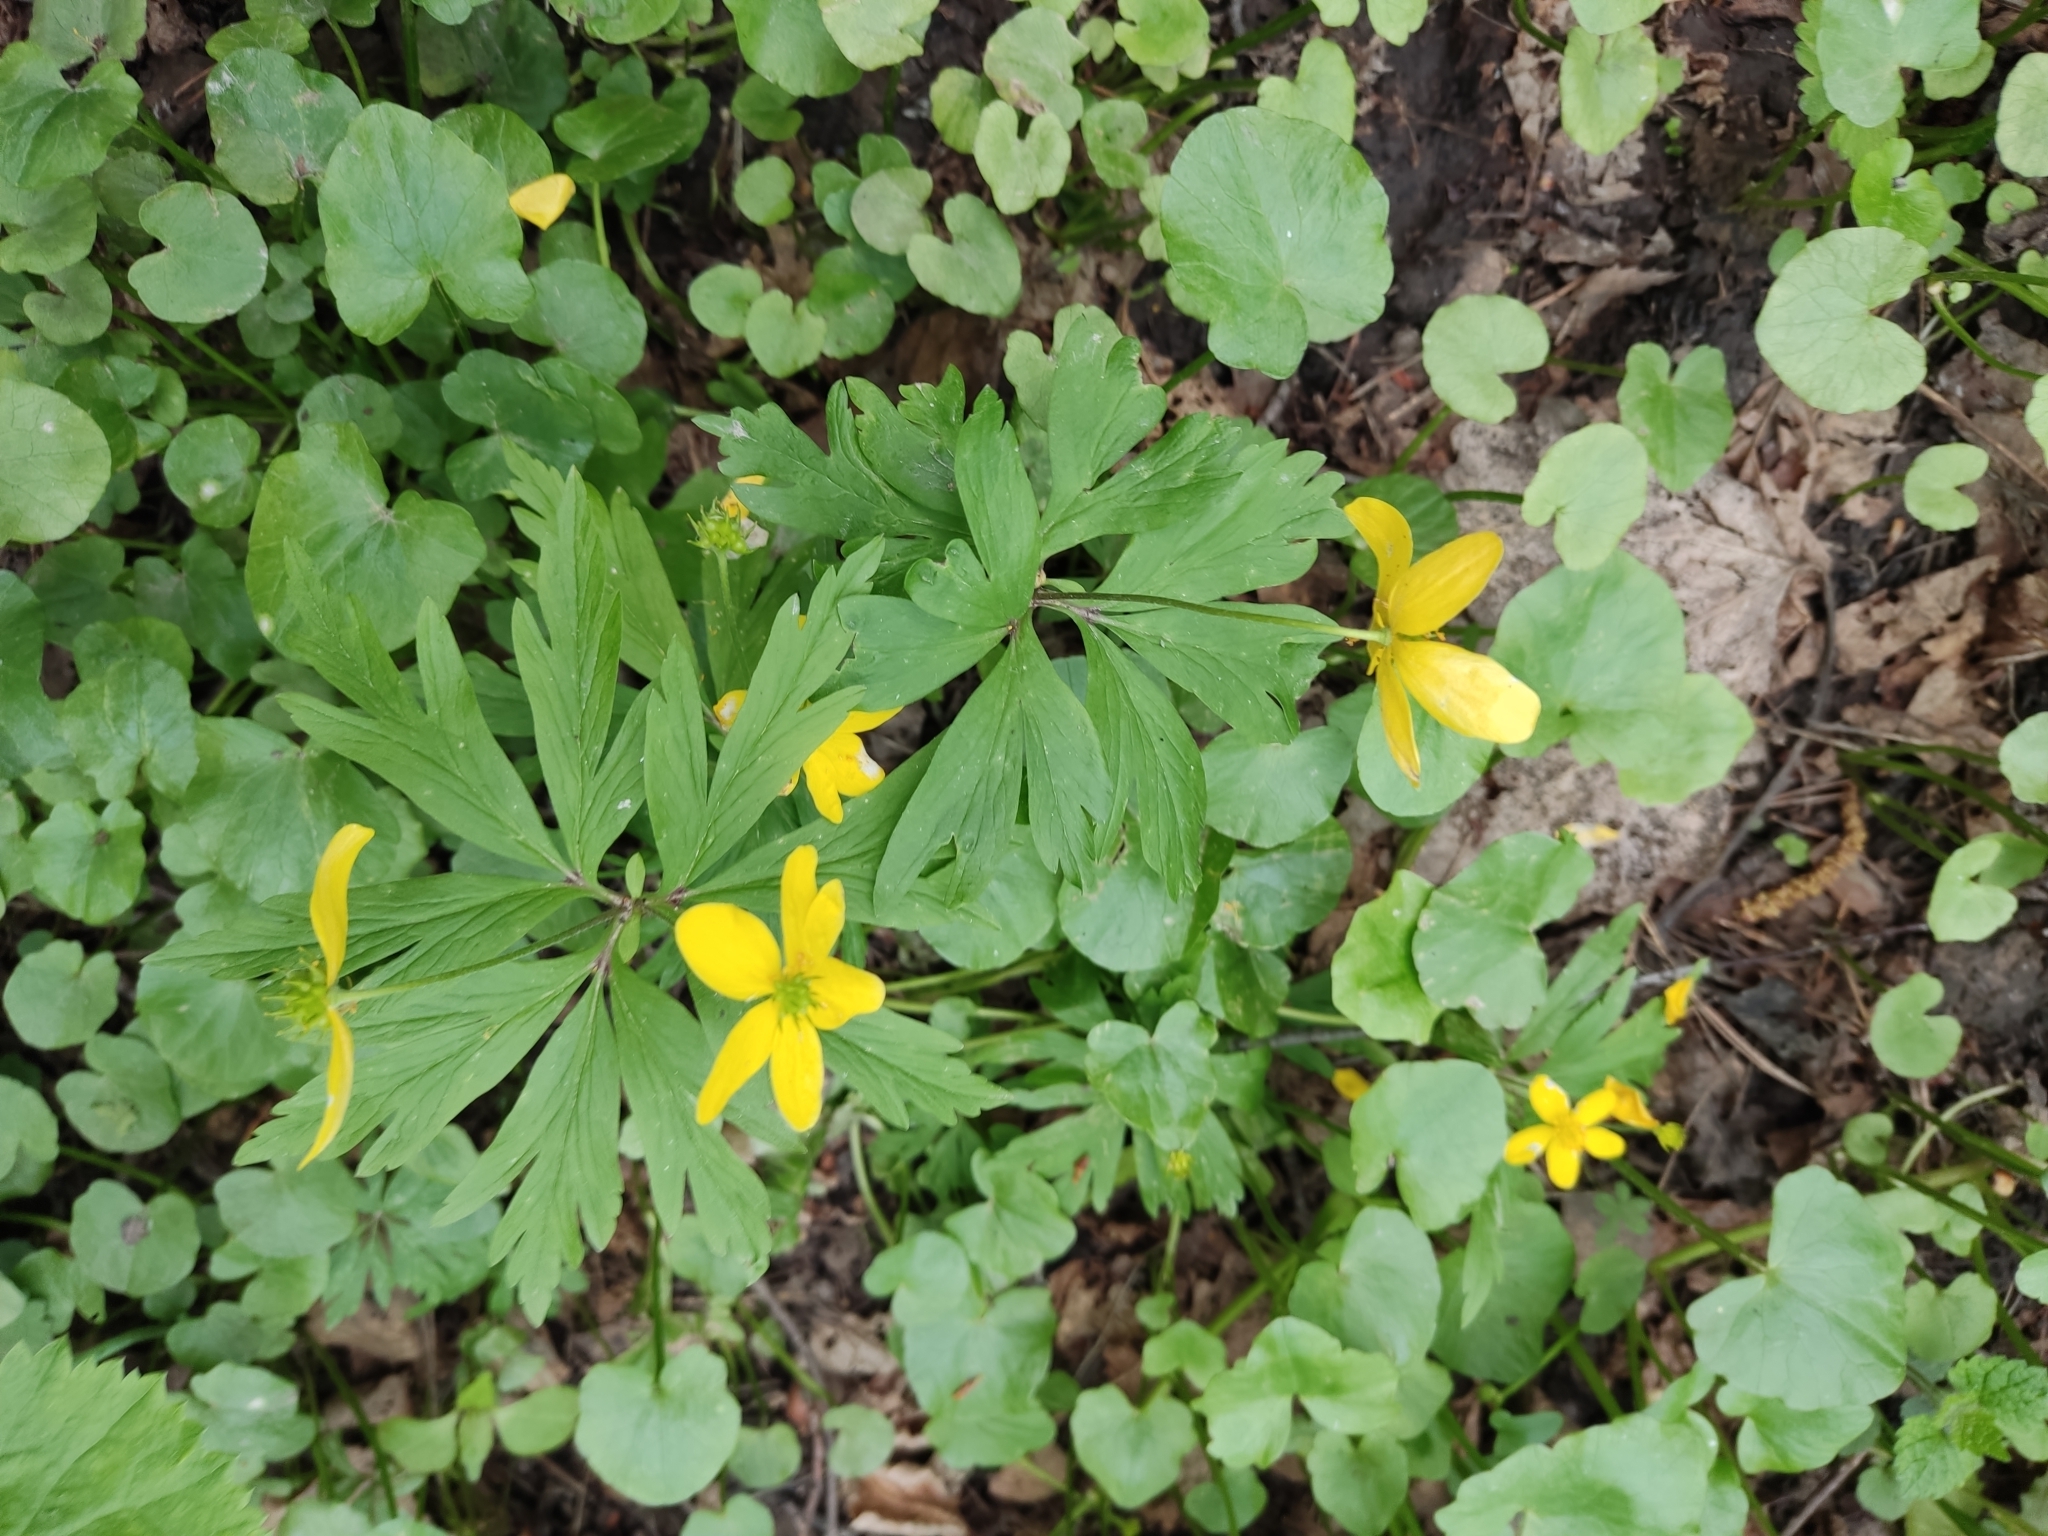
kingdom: Plantae
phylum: Tracheophyta
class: Magnoliopsida
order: Ranunculales
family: Ranunculaceae
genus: Anemone
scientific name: Anemone ranunculoides
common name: Yellow anemone
